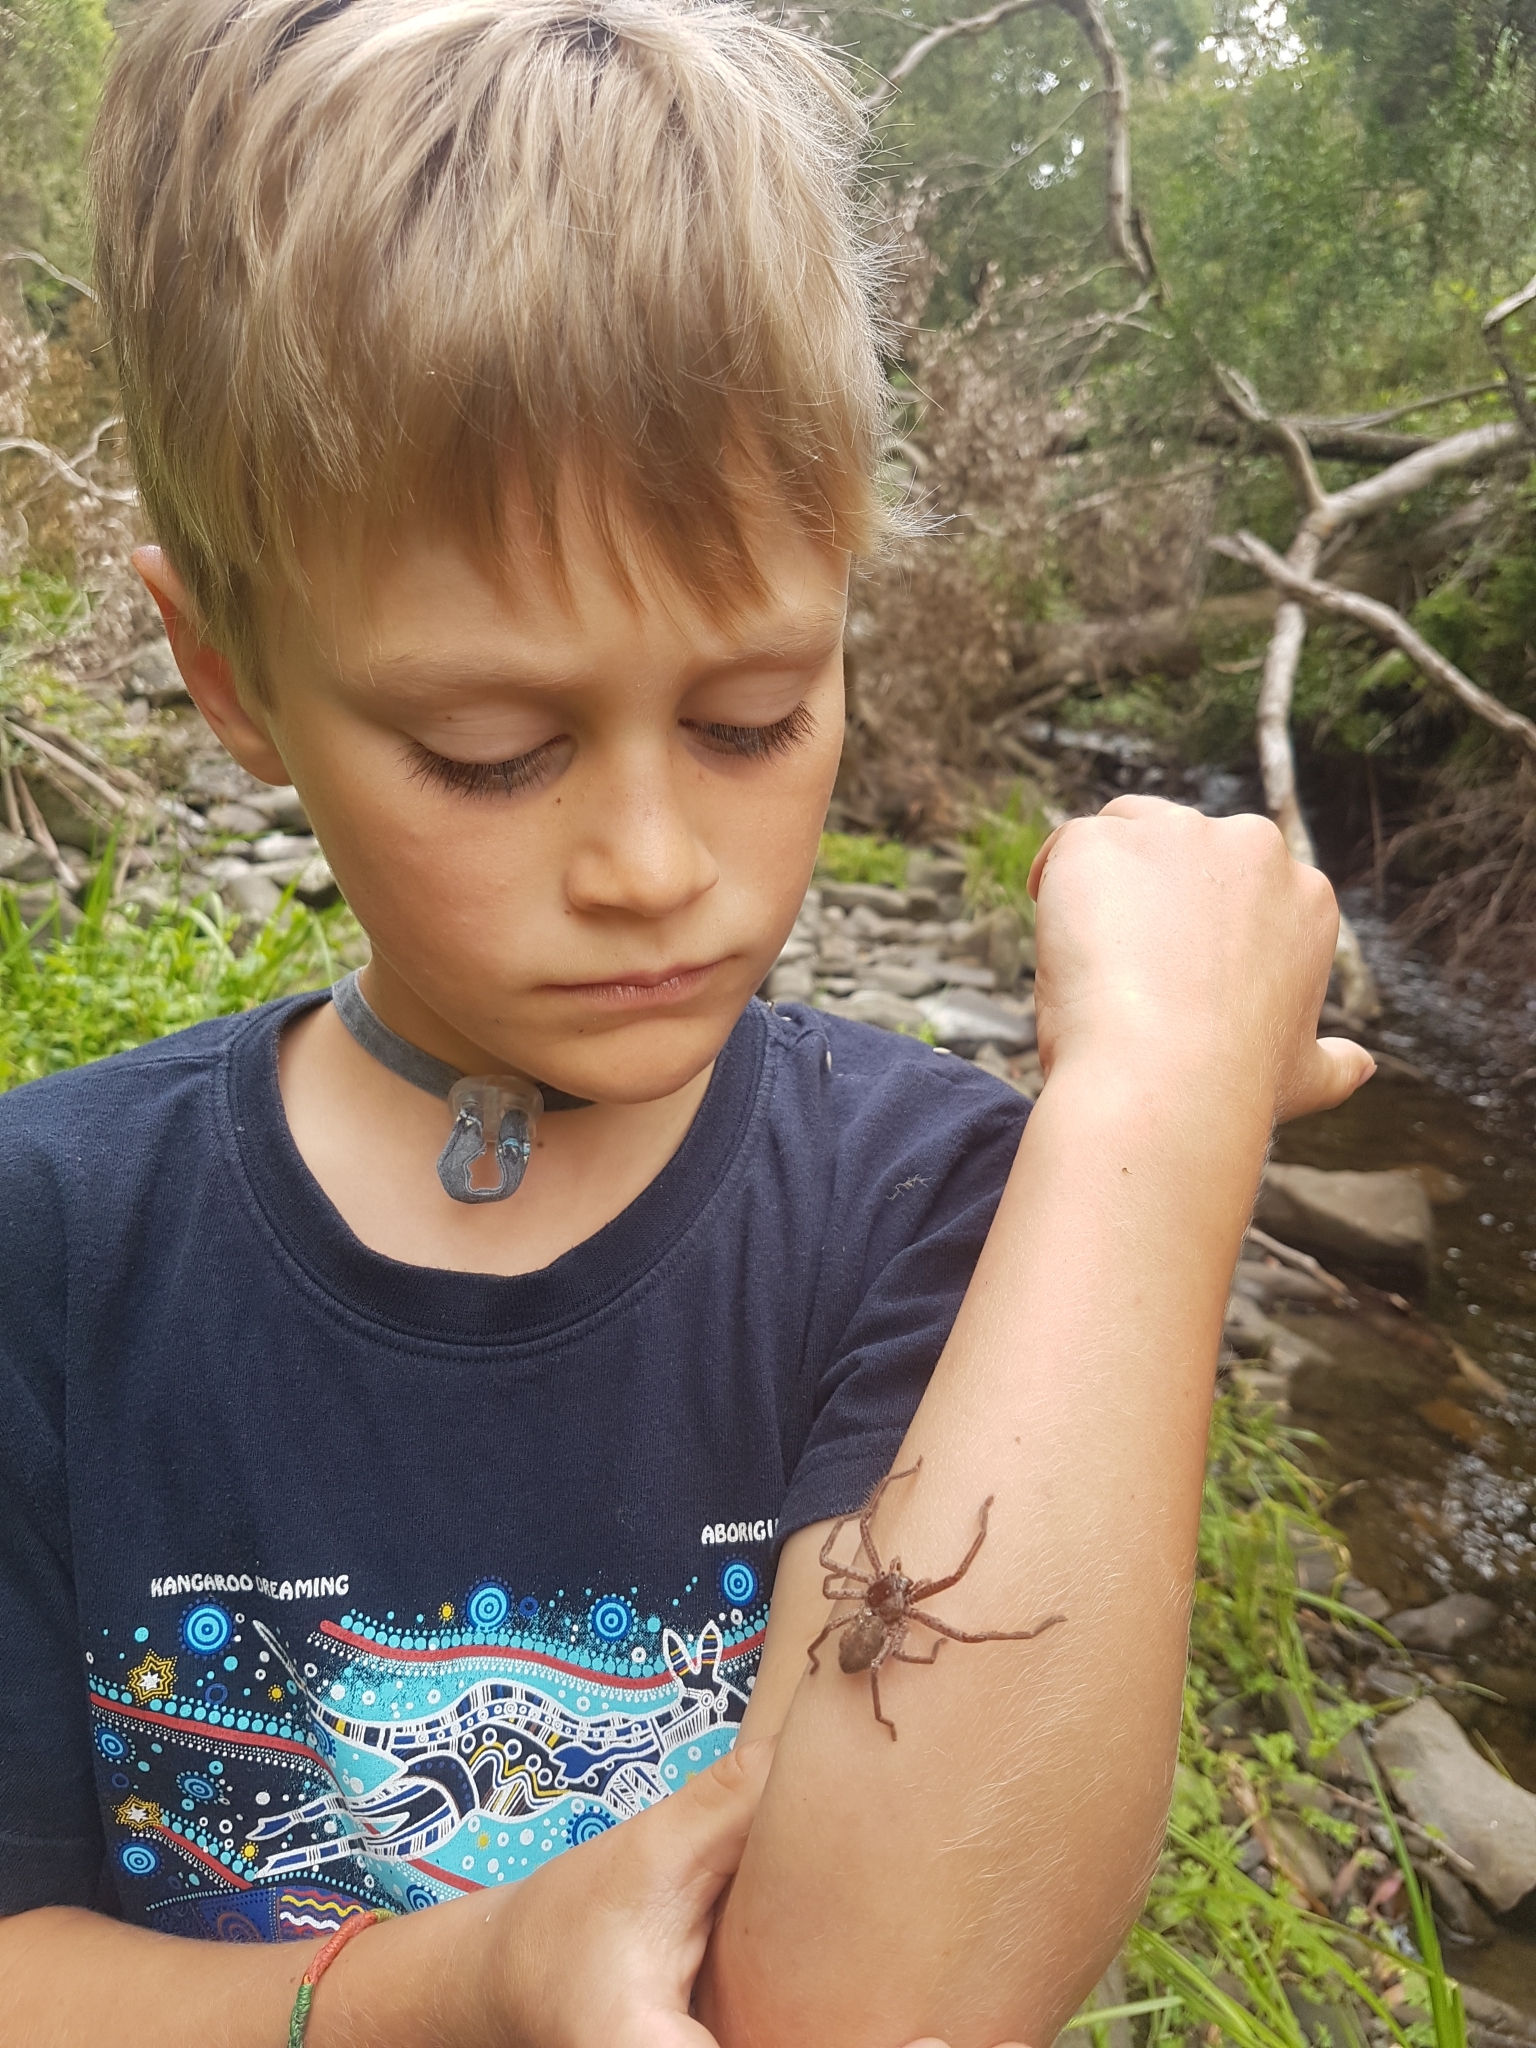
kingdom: Animalia
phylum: Arthropoda
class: Arachnida
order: Araneae
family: Sparassidae
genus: Isopeda
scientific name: Isopeda montana
